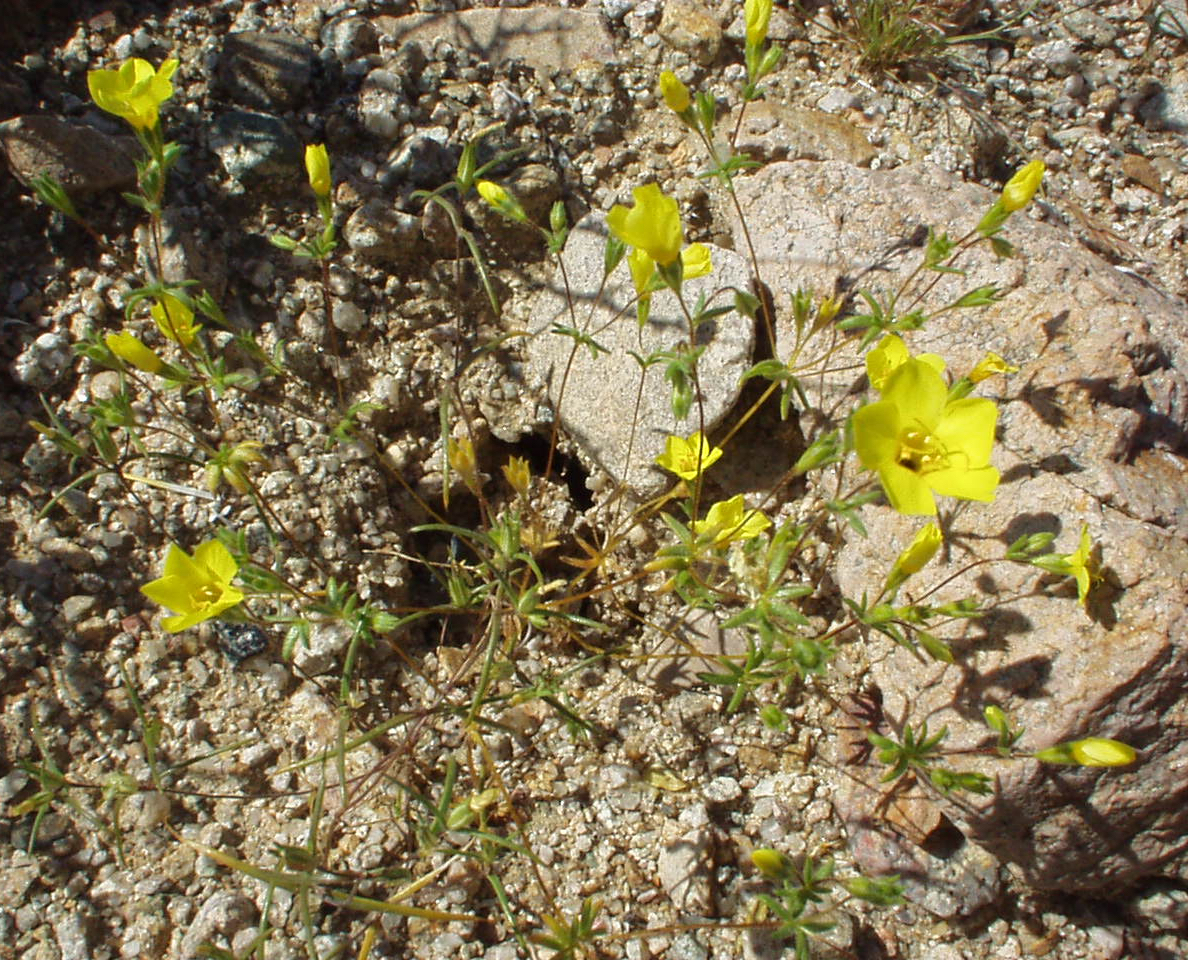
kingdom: Plantae
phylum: Tracheophyta
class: Magnoliopsida
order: Ericales
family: Polemoniaceae
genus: Leptosiphon
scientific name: Leptosiphon chrysanthus
